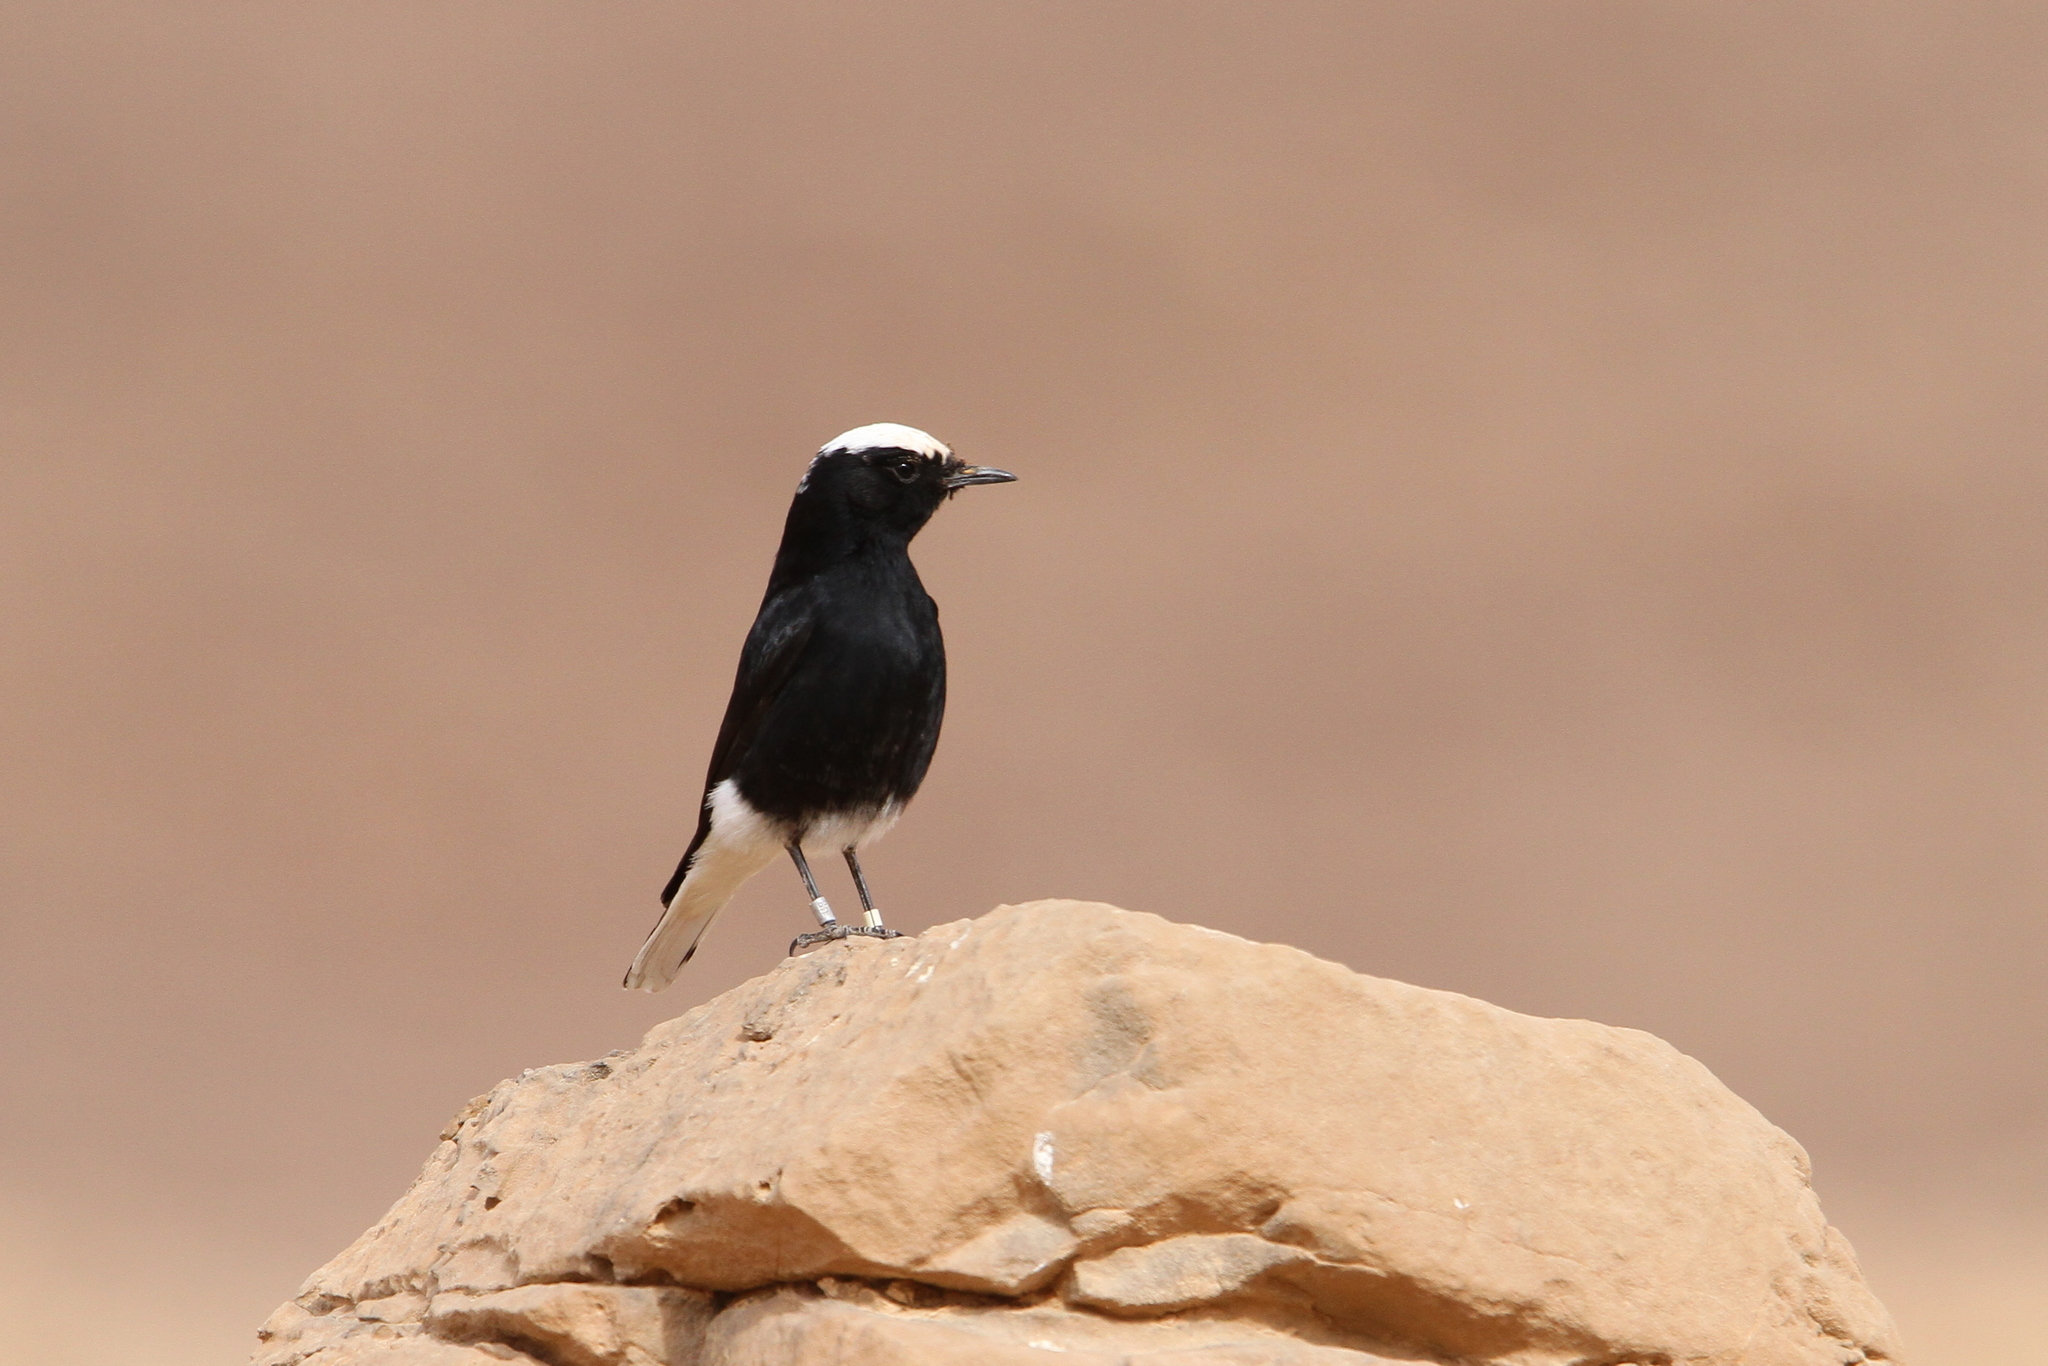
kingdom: Animalia
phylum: Chordata
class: Aves
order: Passeriformes
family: Muscicapidae
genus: Oenanthe
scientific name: Oenanthe leucopyga
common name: White-crowned wheatear
